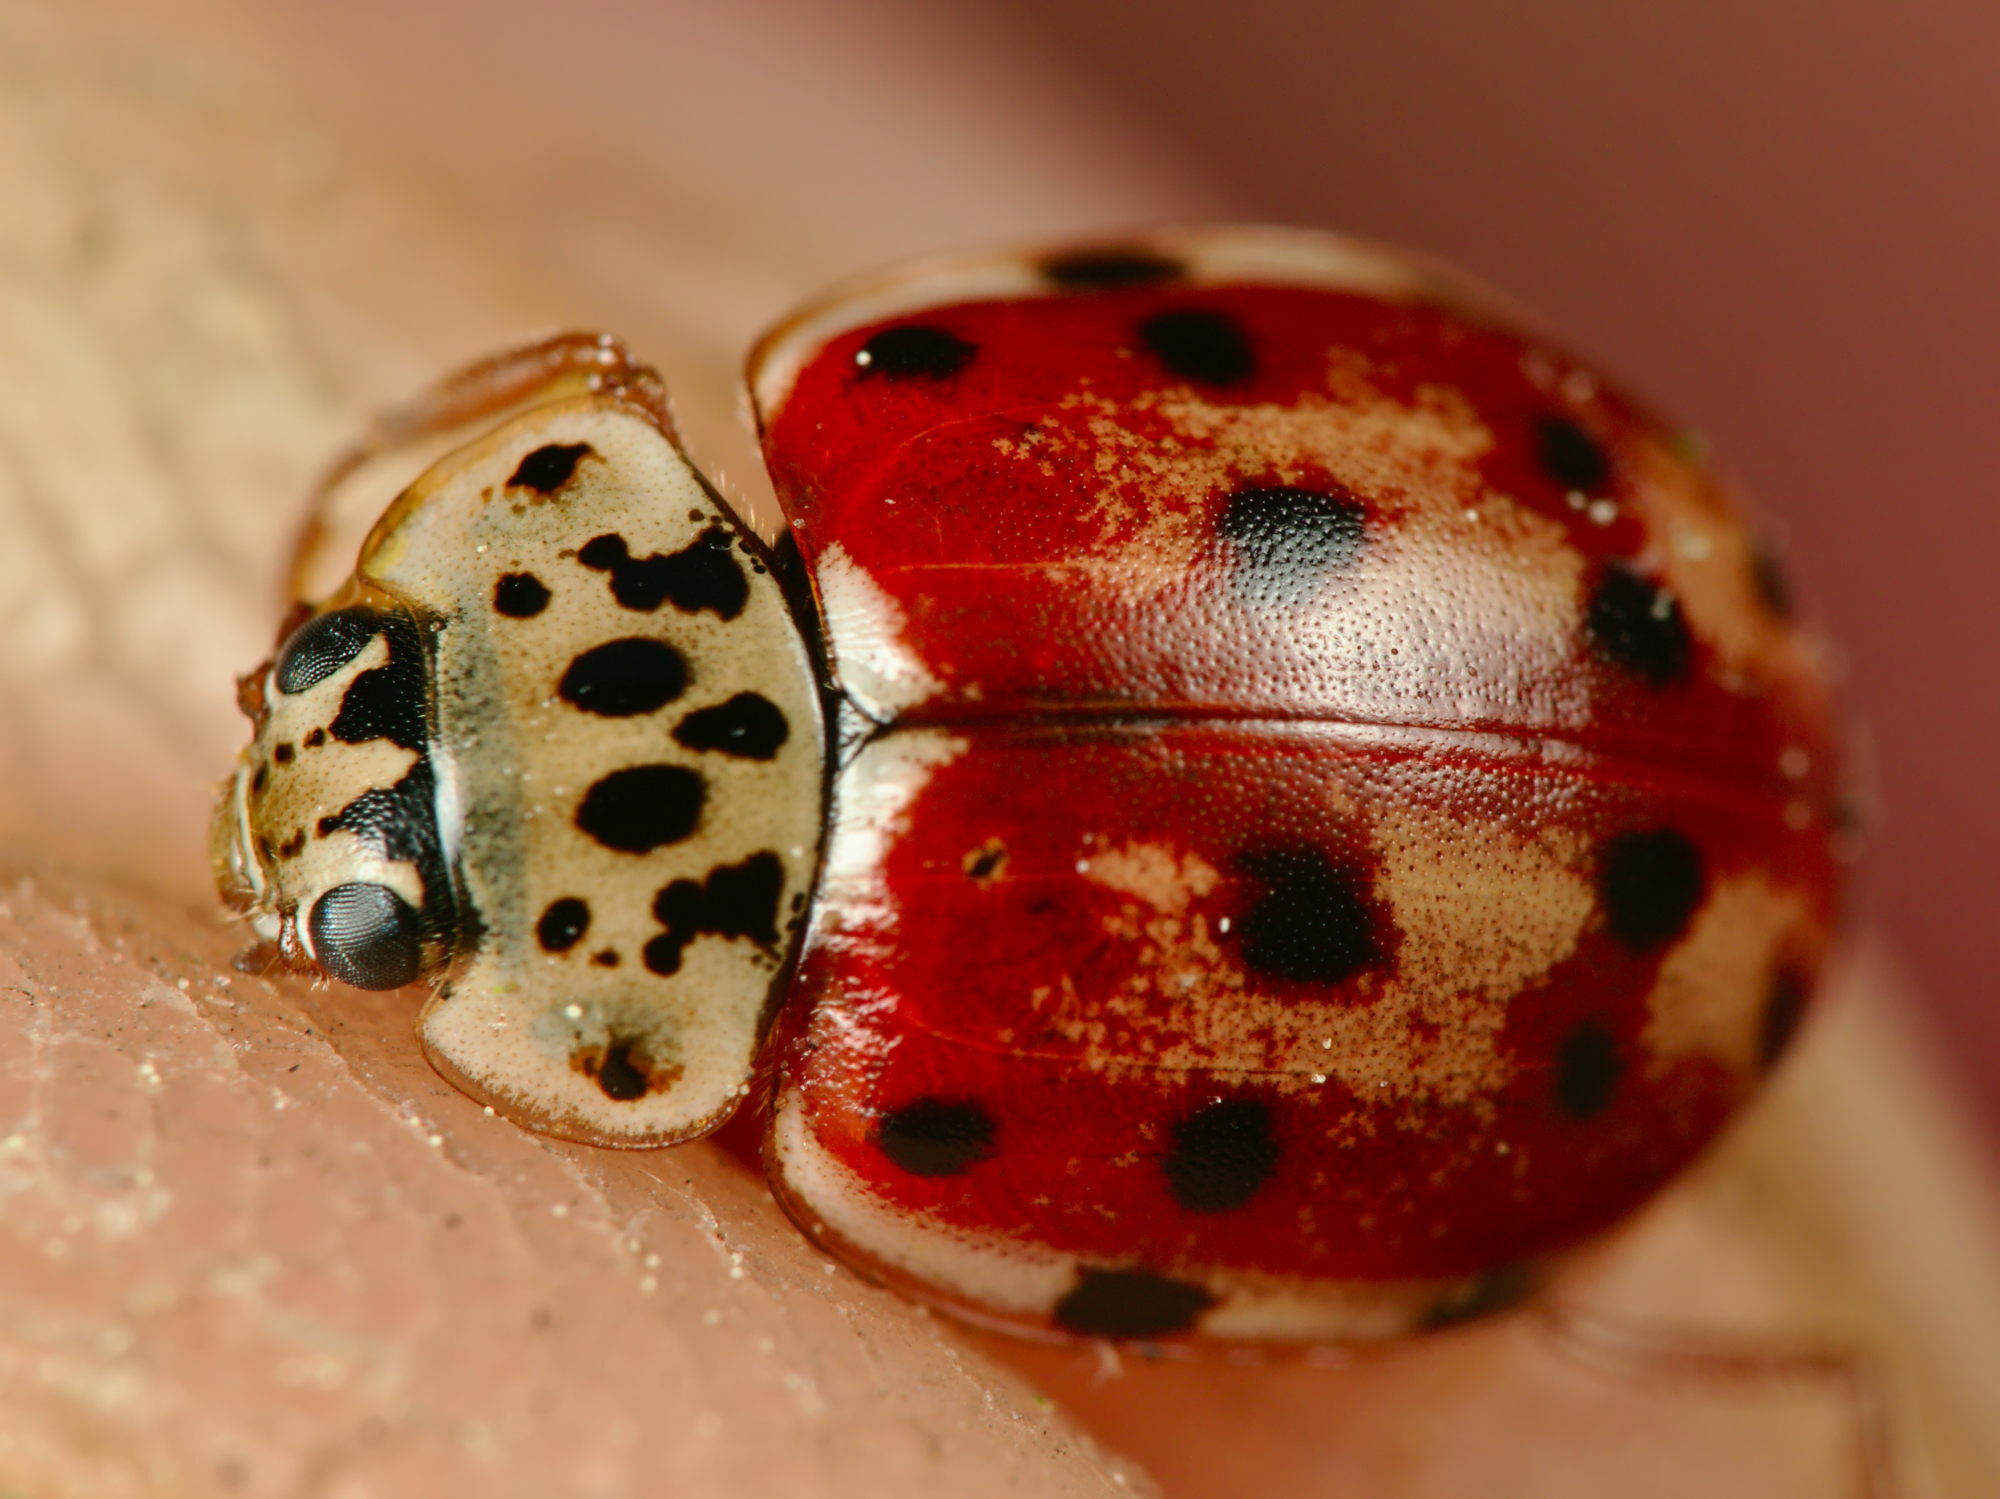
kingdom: Animalia
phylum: Arthropoda
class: Insecta
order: Coleoptera
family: Coccinellidae
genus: Harmonia
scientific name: Harmonia quadripunctata
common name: Cream-streaked ladybird
